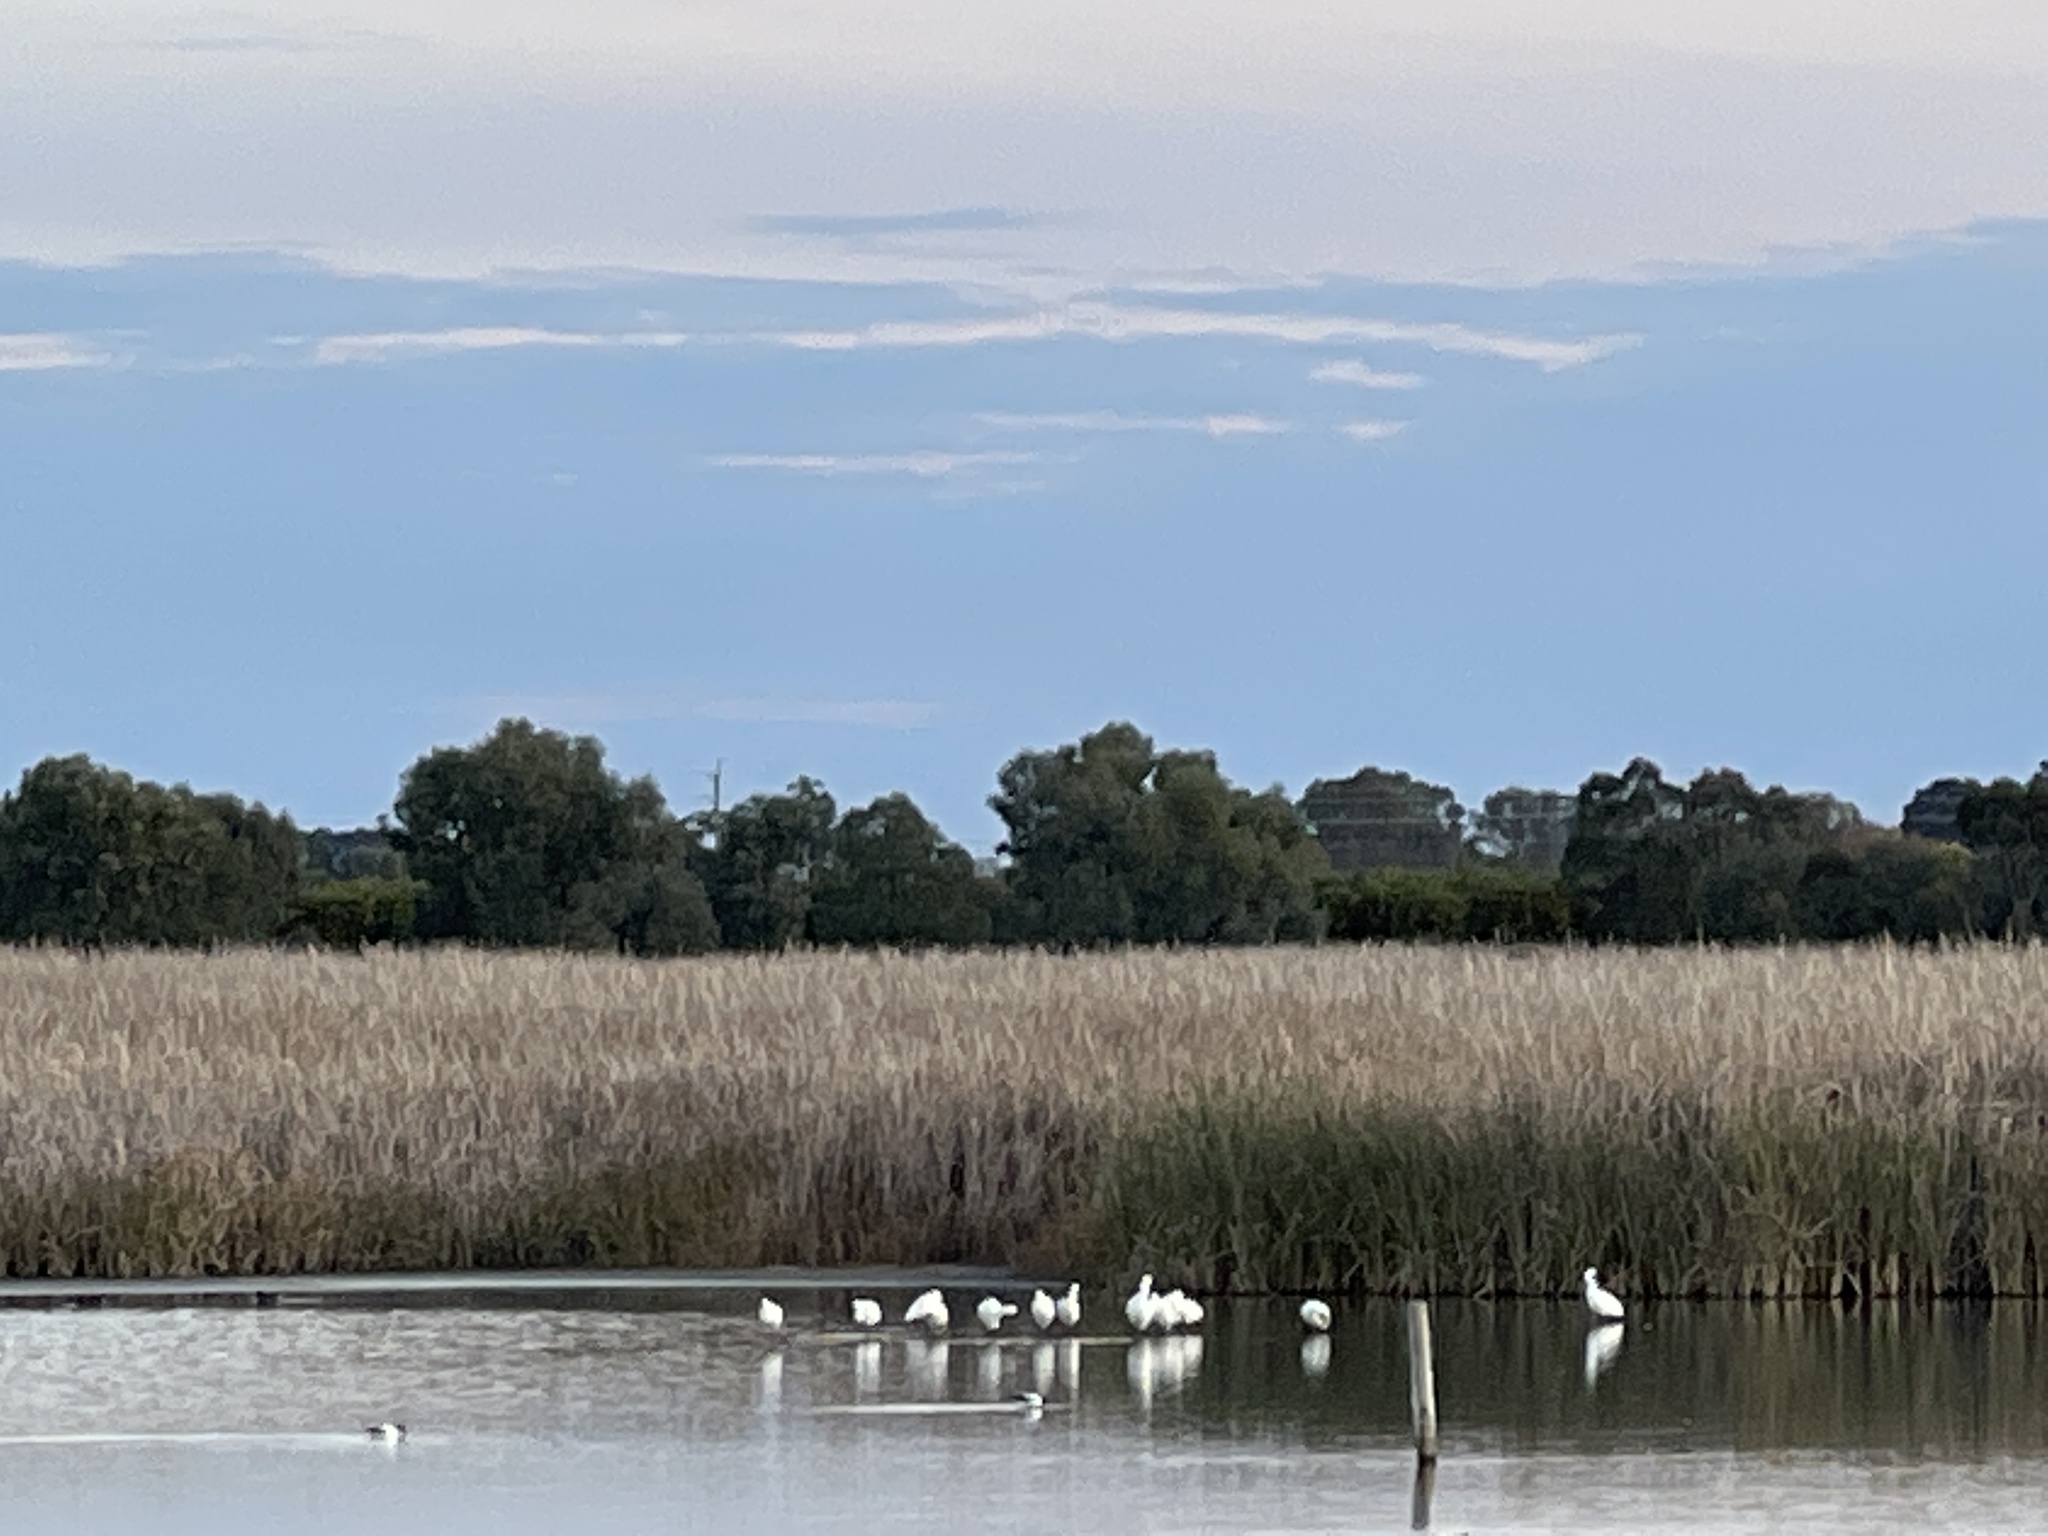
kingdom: Animalia
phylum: Chordata
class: Aves
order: Pelecaniformes
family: Threskiornithidae
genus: Platalea
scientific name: Platalea regia
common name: Royal spoonbill
